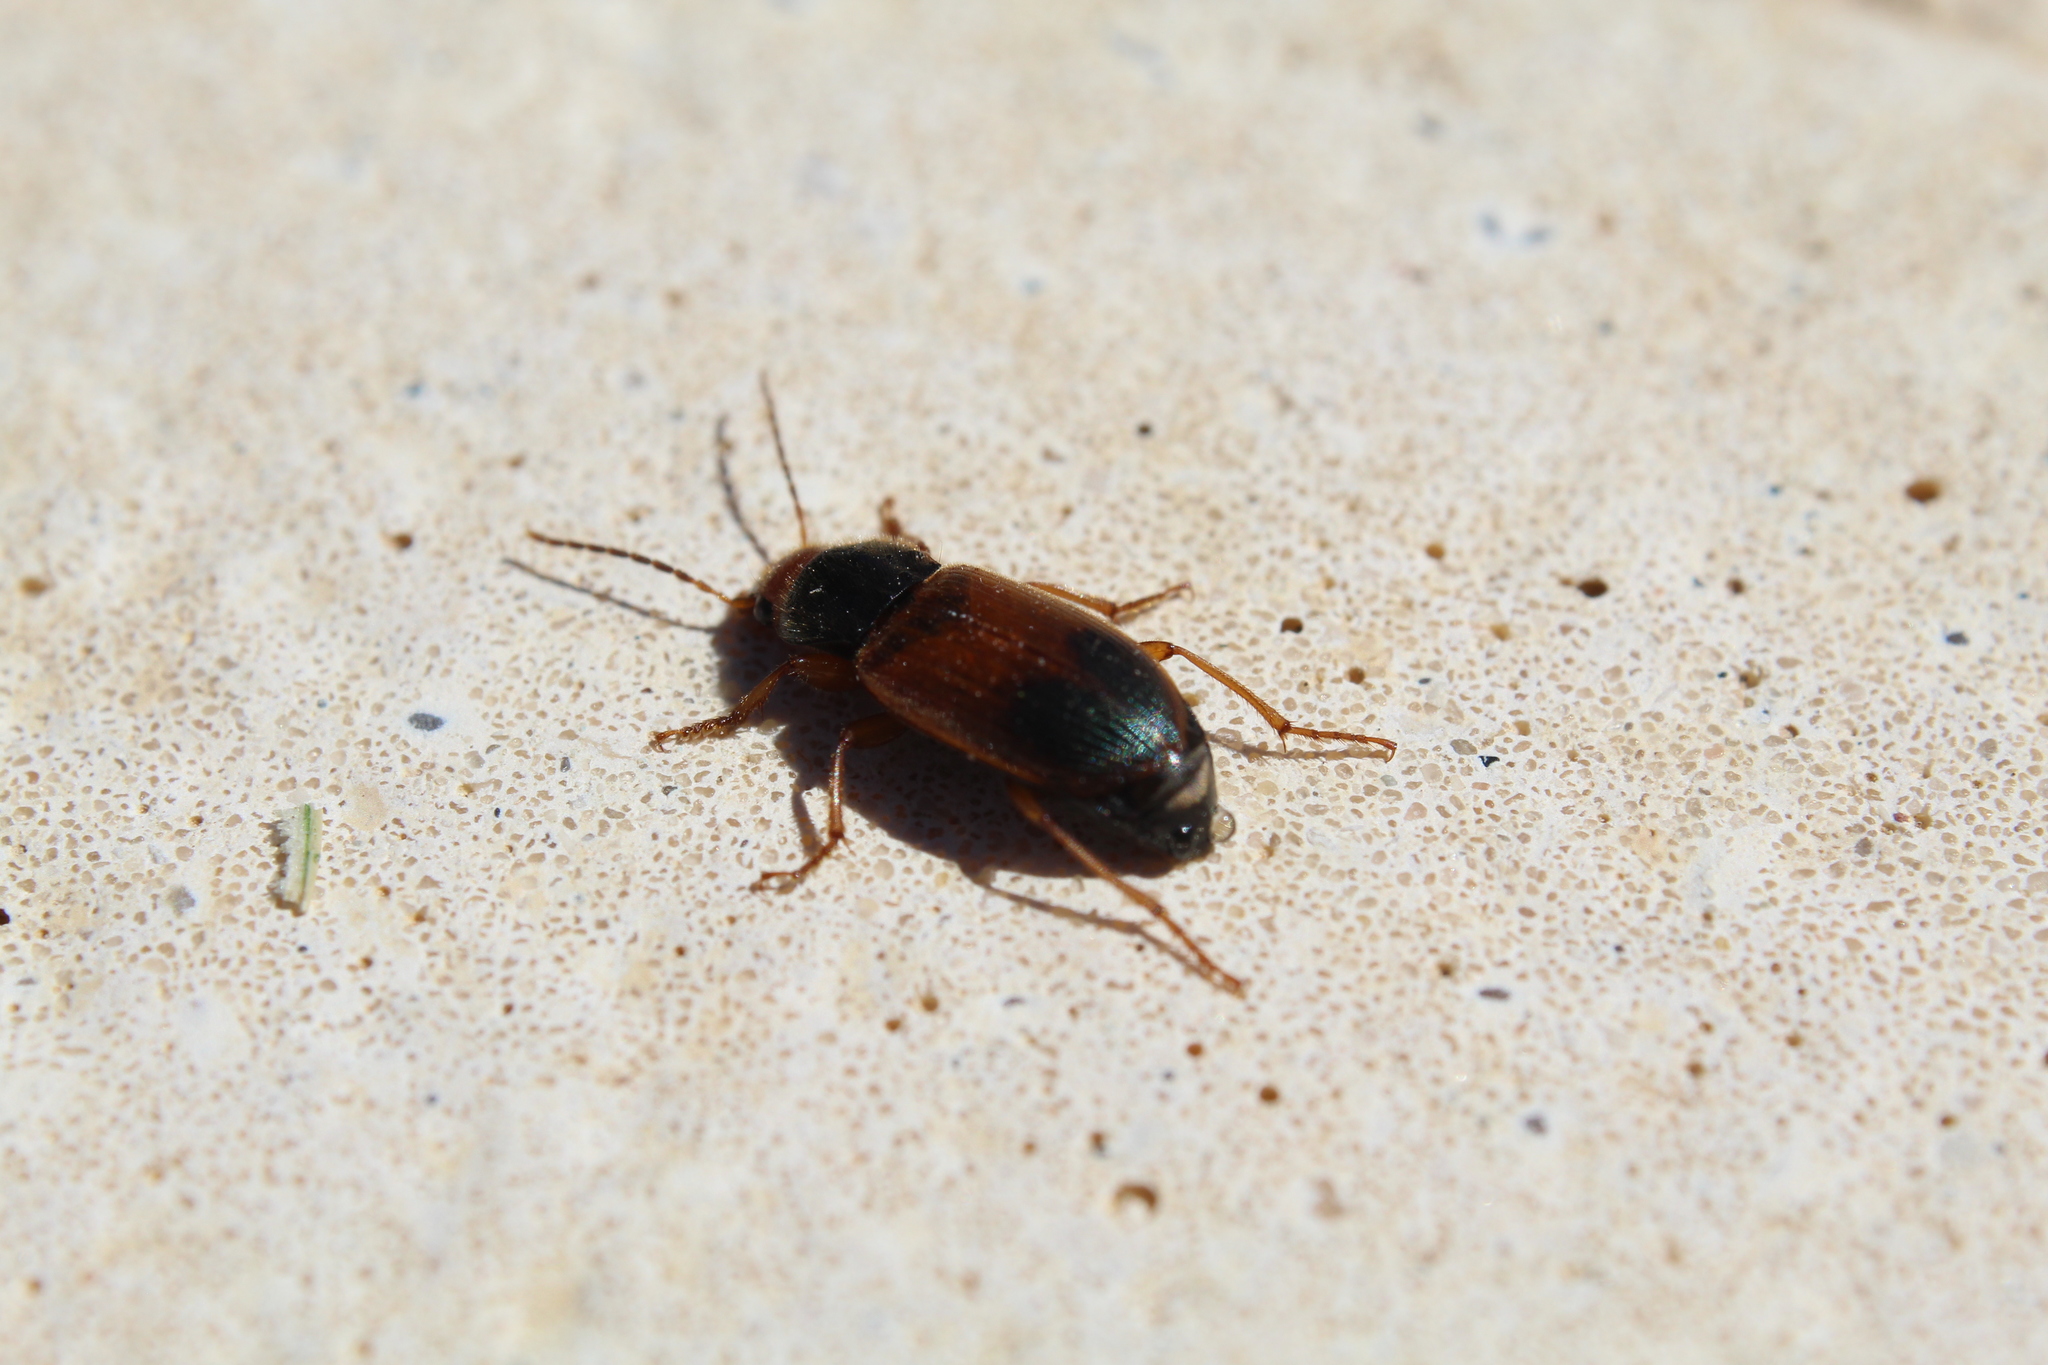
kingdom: Animalia
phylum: Arthropoda
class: Insecta
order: Coleoptera
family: Carabidae
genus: Diachromus
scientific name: Diachromus germanus
